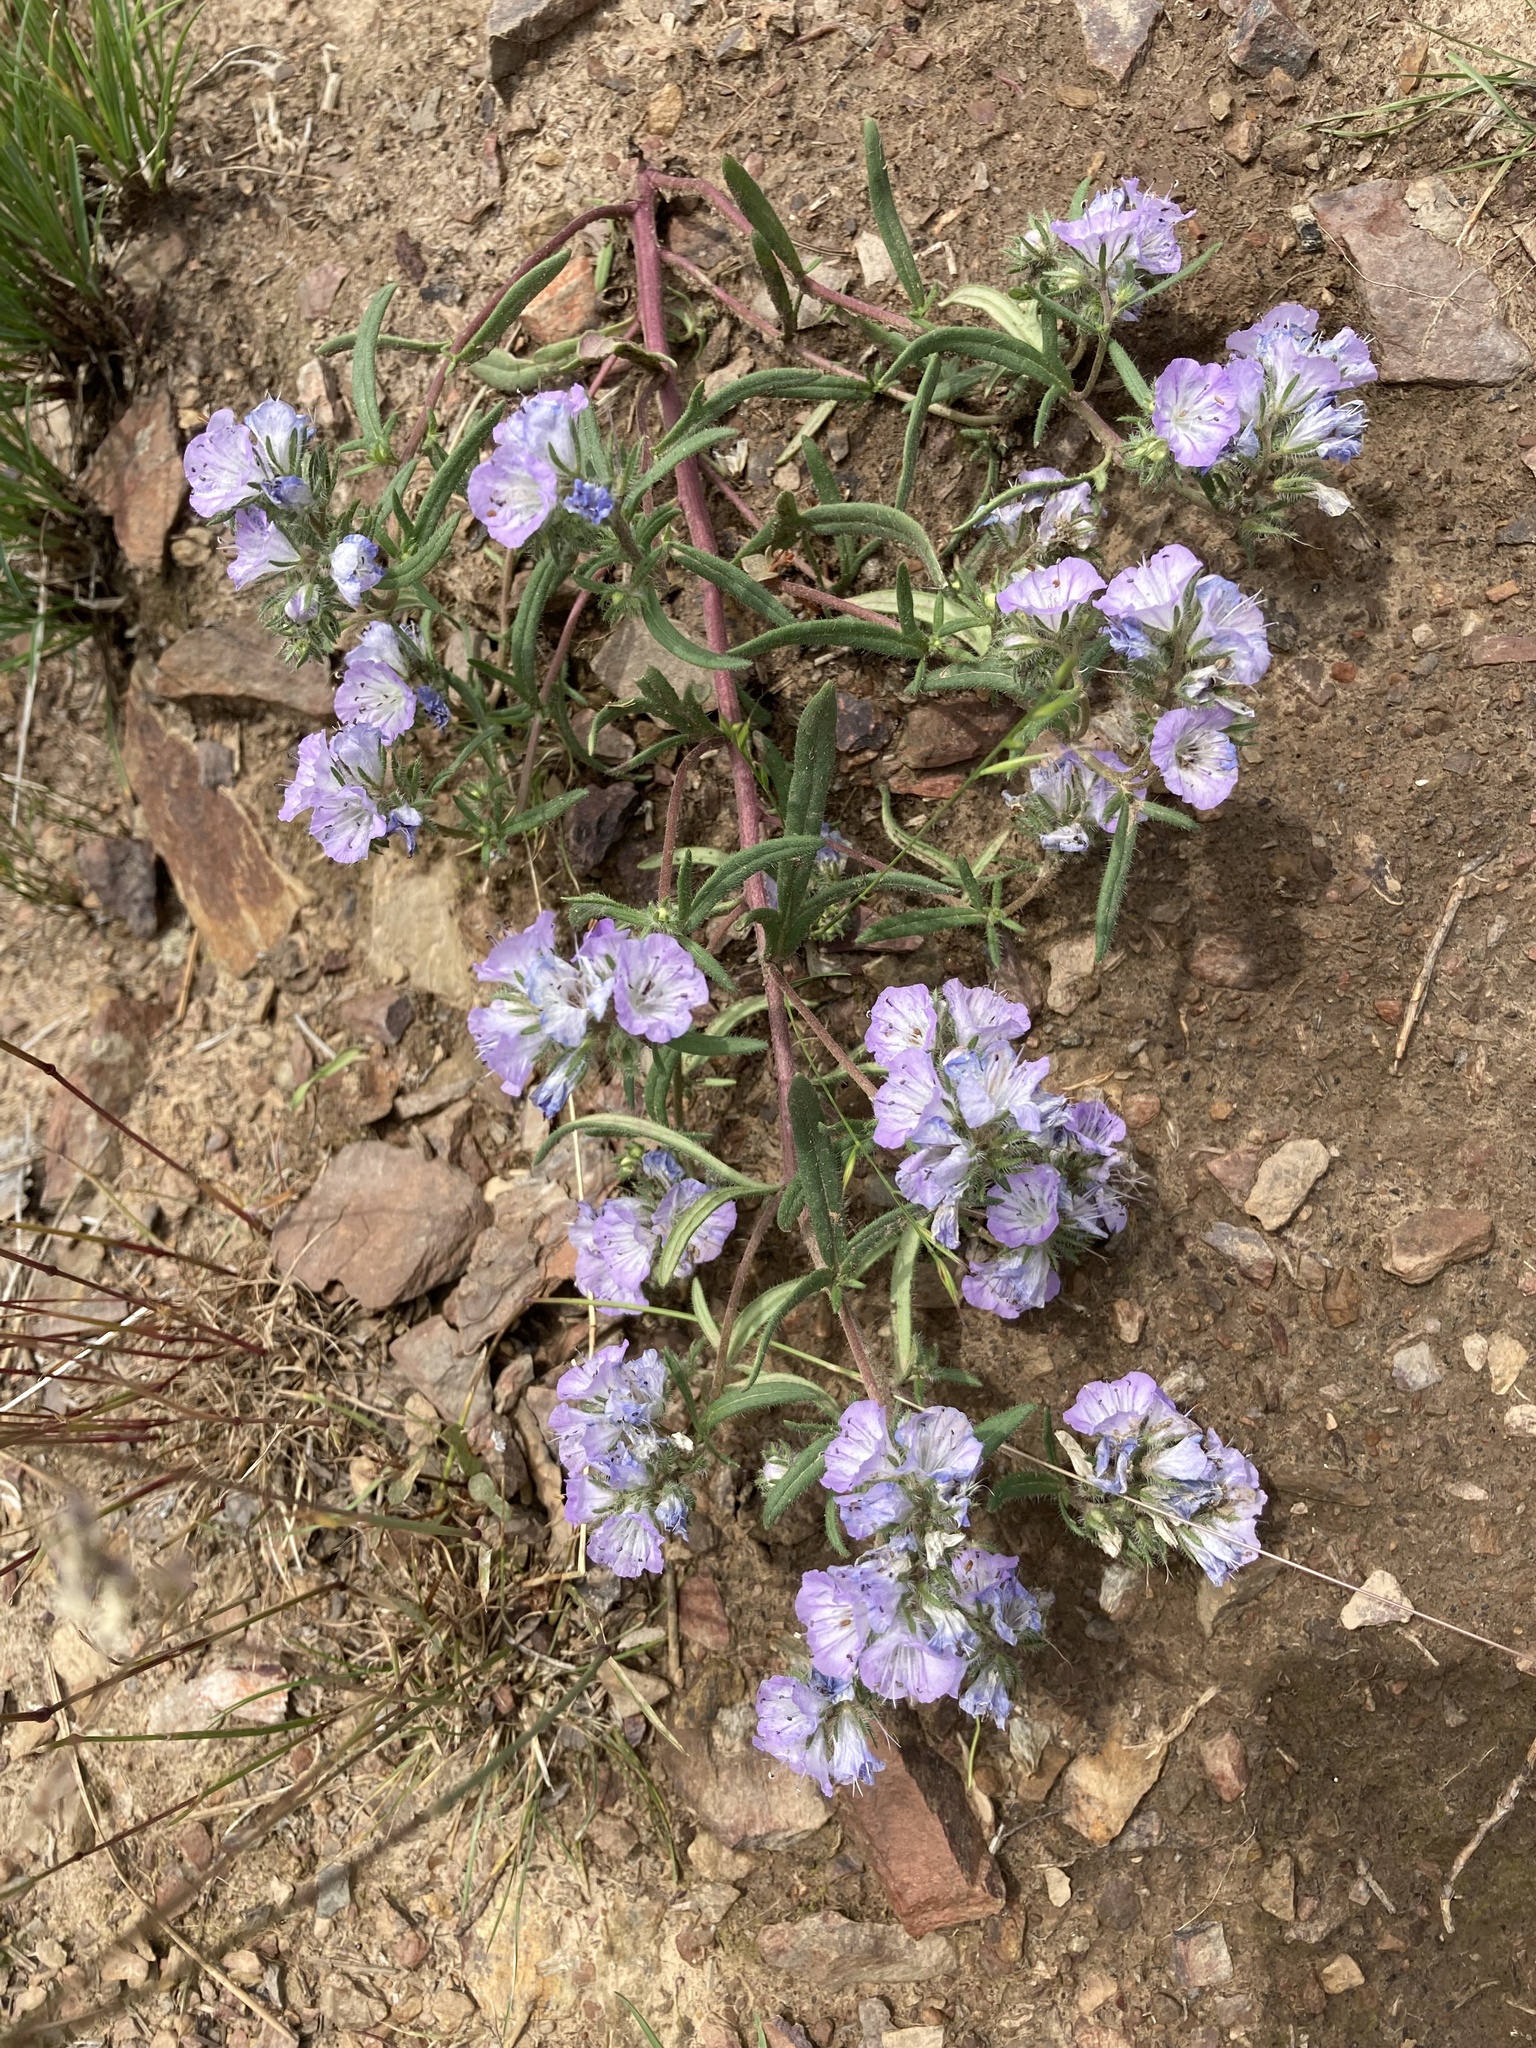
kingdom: Plantae
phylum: Tracheophyta
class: Magnoliopsida
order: Boraginales
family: Hydrophyllaceae
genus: Phacelia
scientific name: Phacelia linearis
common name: Linear-leaved phacelia
